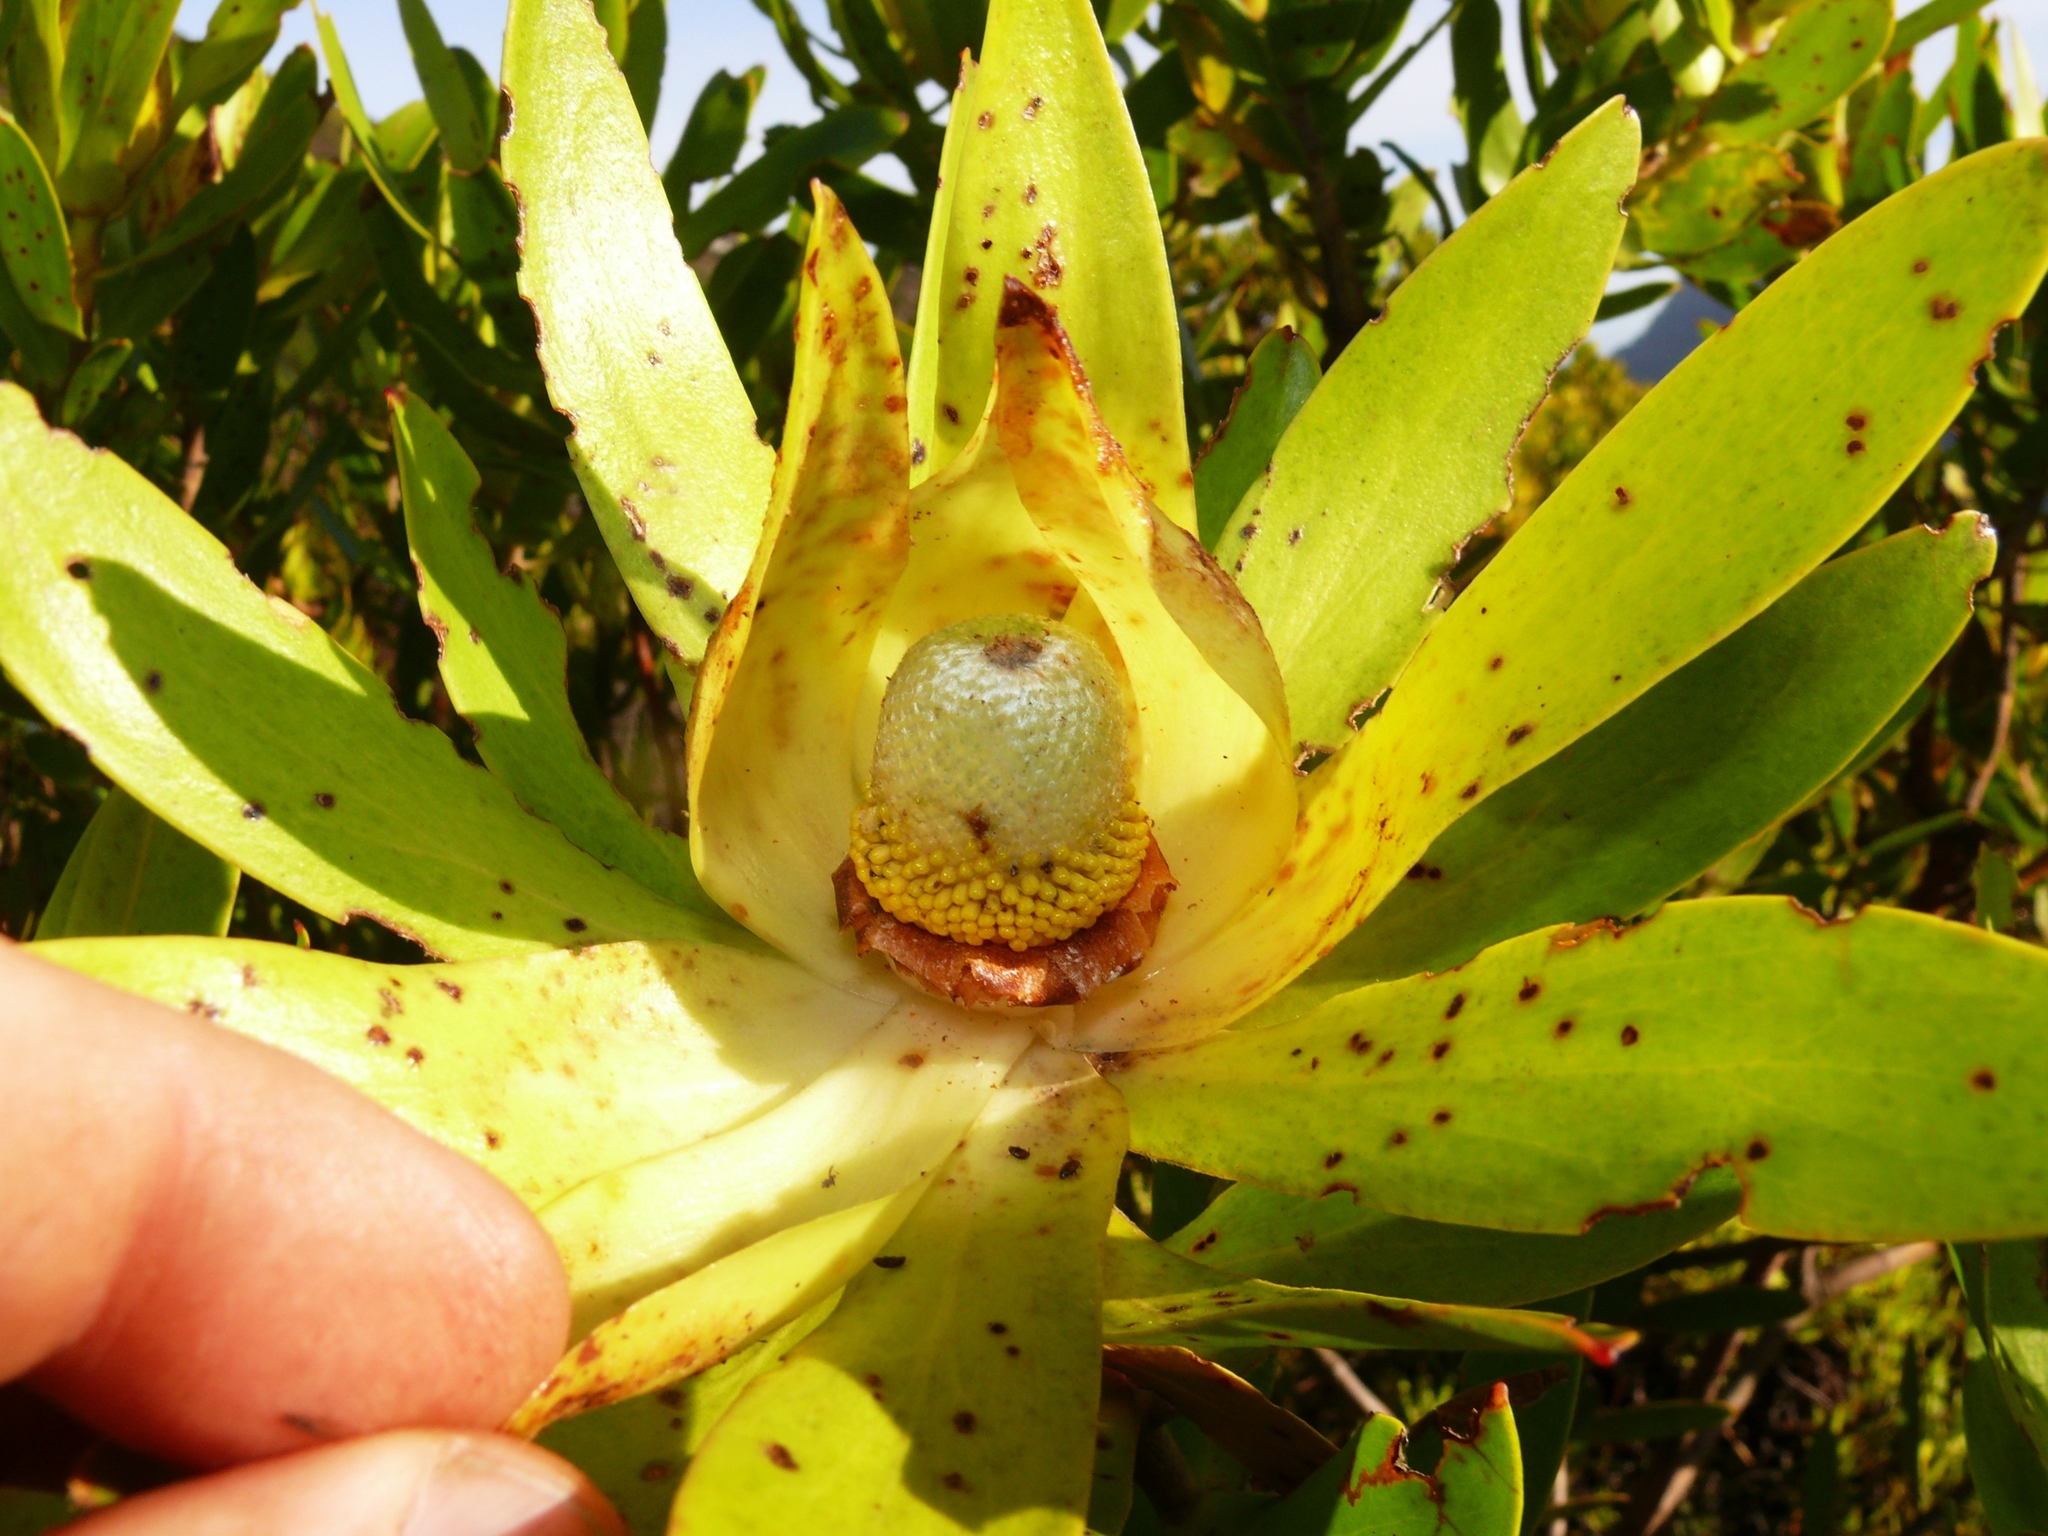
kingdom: Plantae
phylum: Tracheophyta
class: Magnoliopsida
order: Proteales
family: Proteaceae
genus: Leucadendron
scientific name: Leucadendron laureolum
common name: Golden sunshinebush
